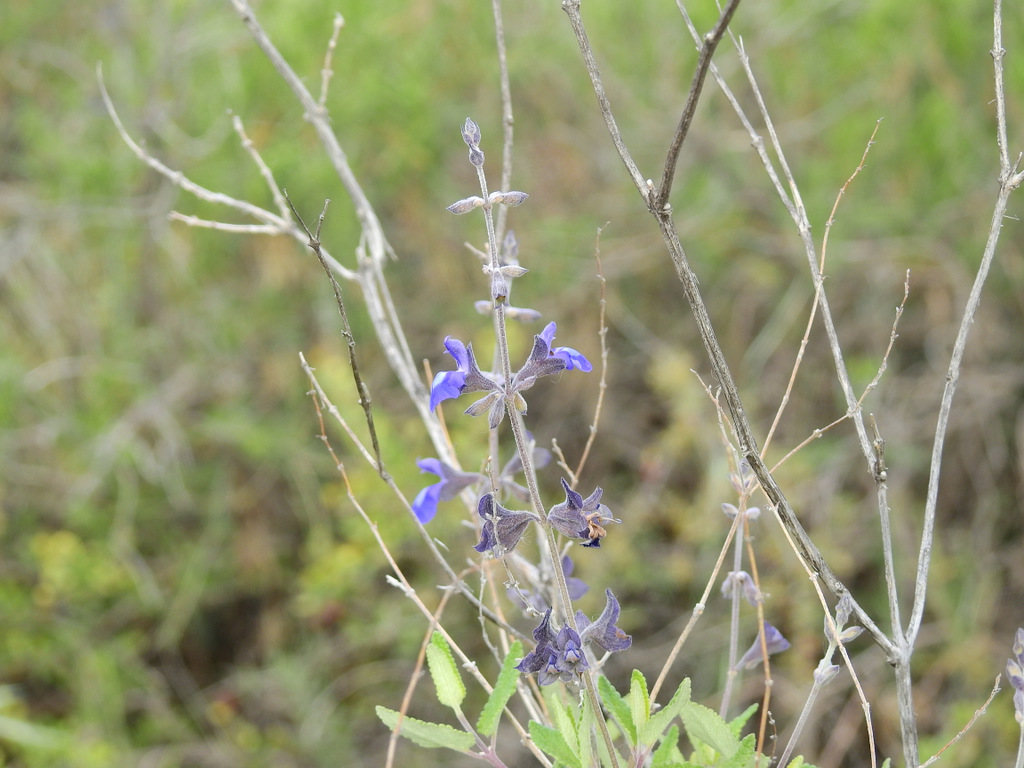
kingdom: Plantae
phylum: Tracheophyta
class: Magnoliopsida
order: Lamiales
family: Lamiaceae
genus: Salvia
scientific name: Salvia cuspidata
